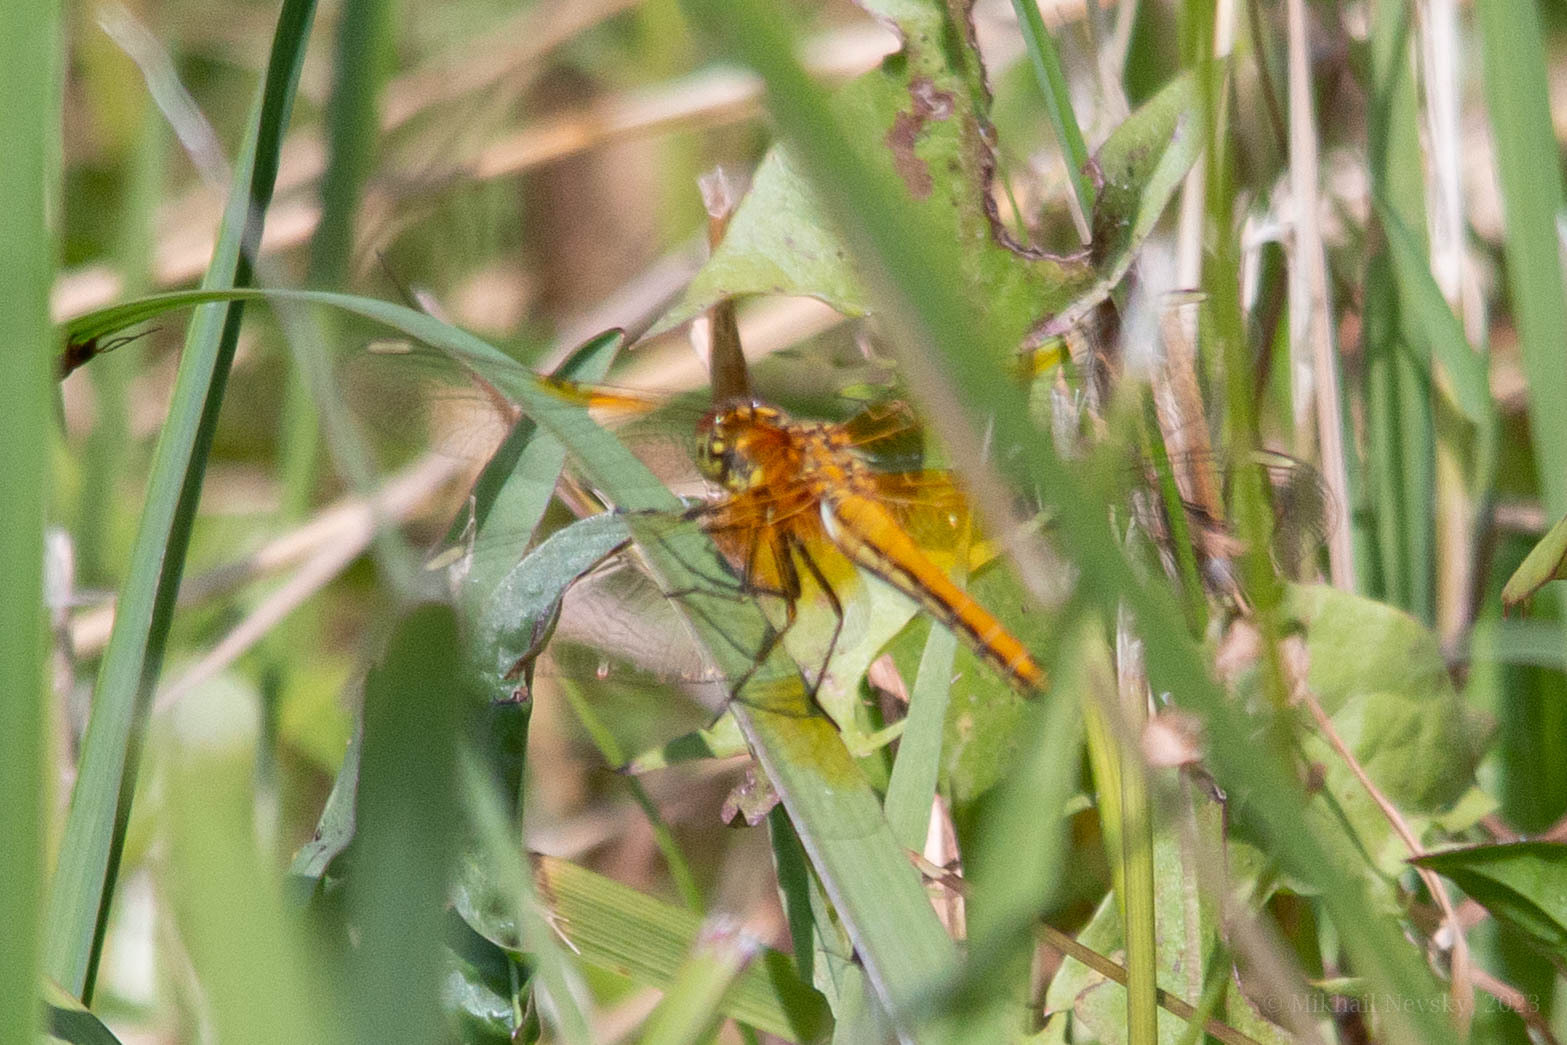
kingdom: Animalia
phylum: Arthropoda
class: Insecta
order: Odonata
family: Libellulidae
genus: Sympetrum
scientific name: Sympetrum flaveolum
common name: Yellow-winged darter
